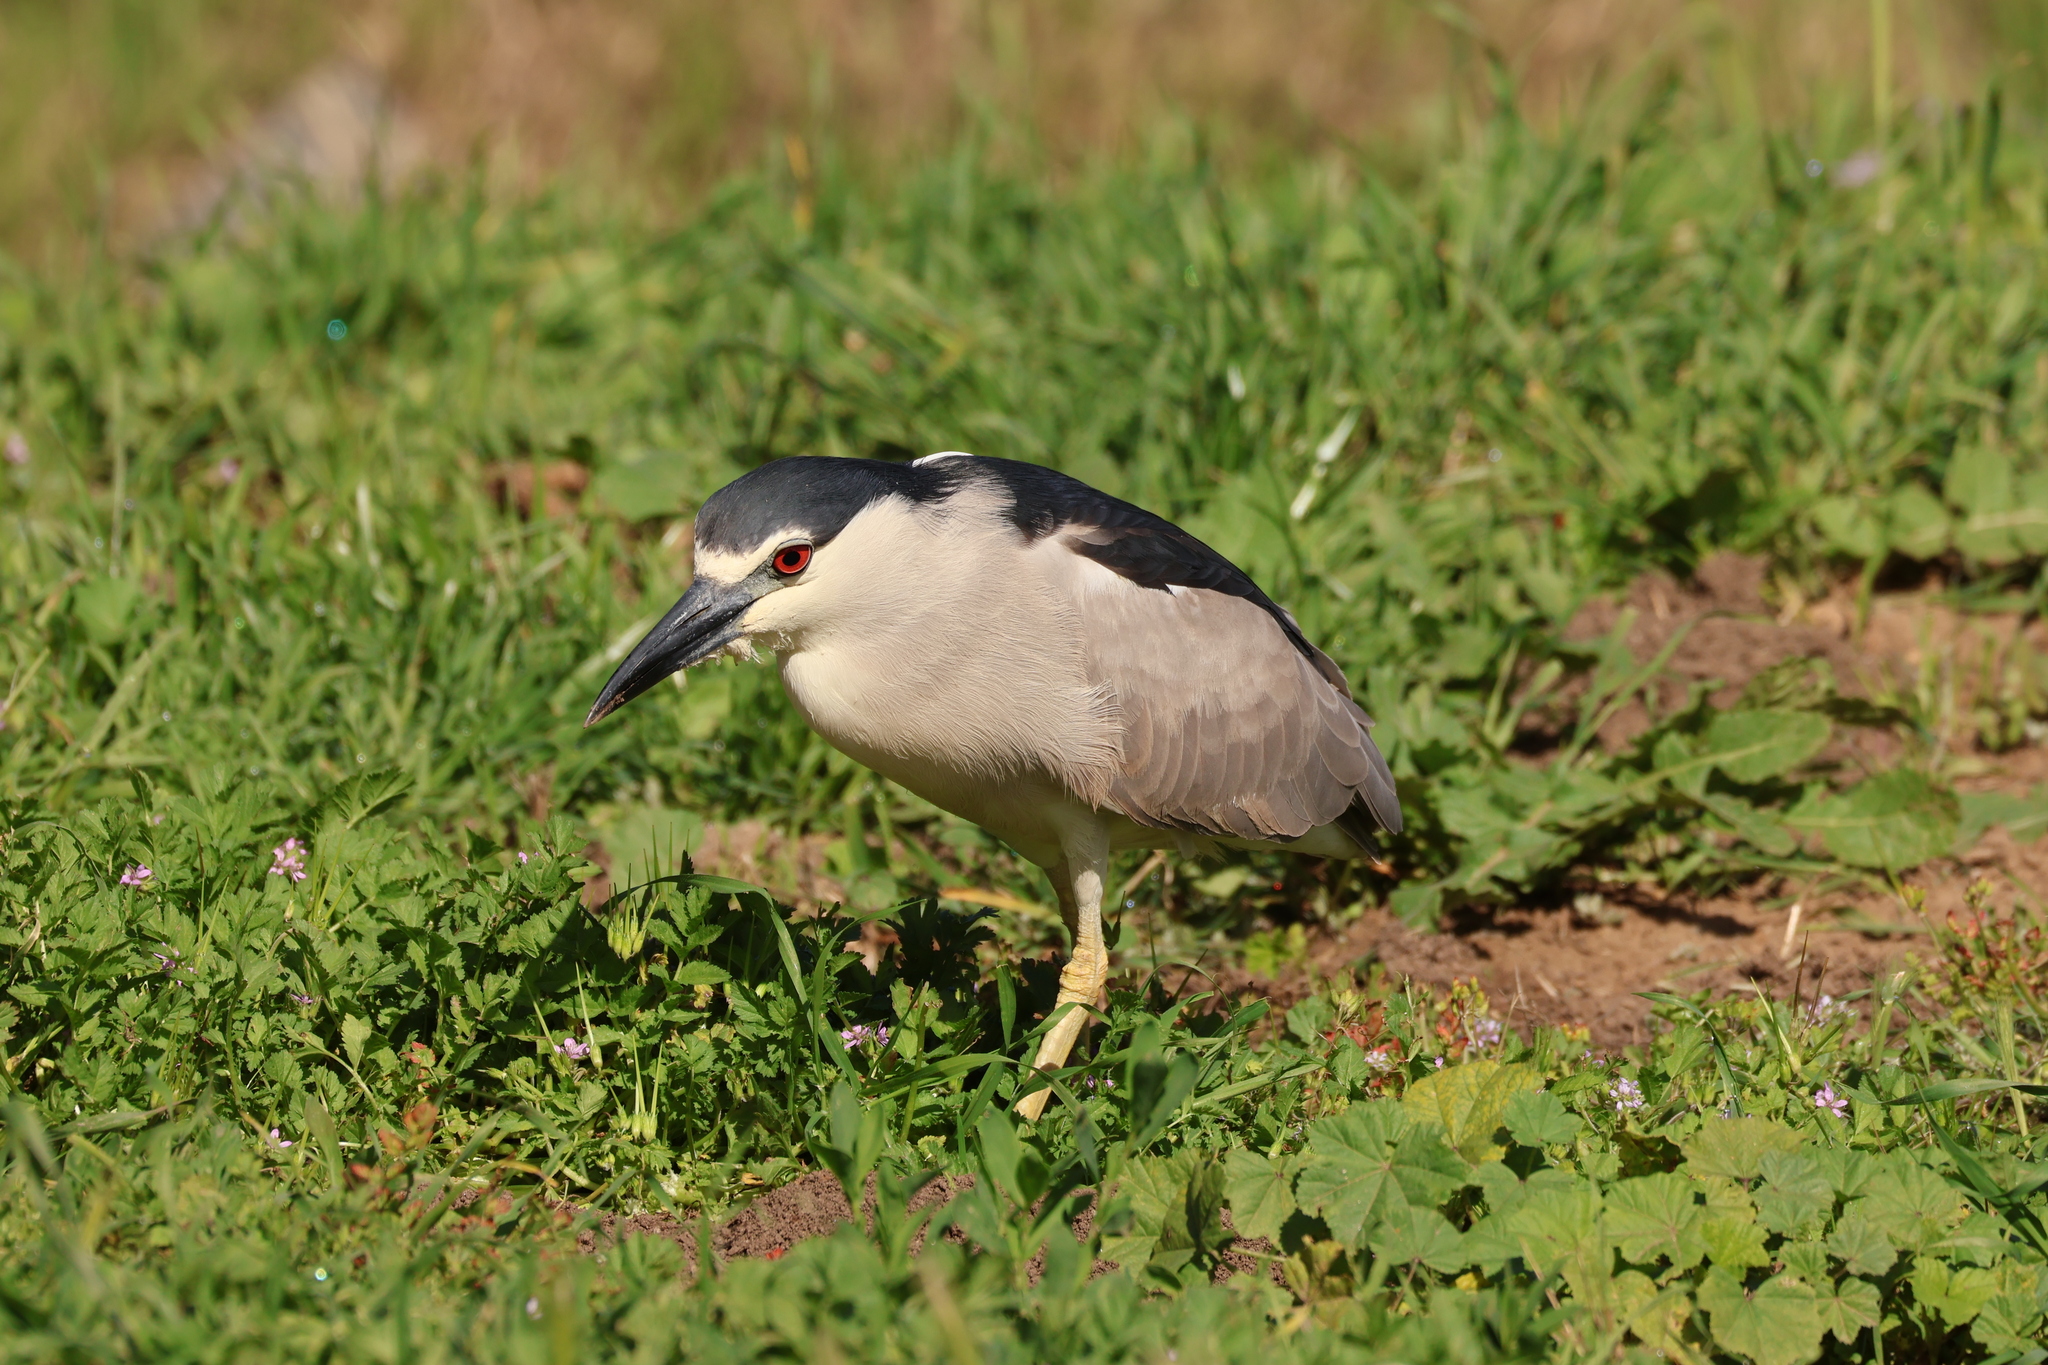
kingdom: Animalia
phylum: Chordata
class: Aves
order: Pelecaniformes
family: Ardeidae
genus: Nycticorax
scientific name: Nycticorax nycticorax
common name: Black-crowned night heron
